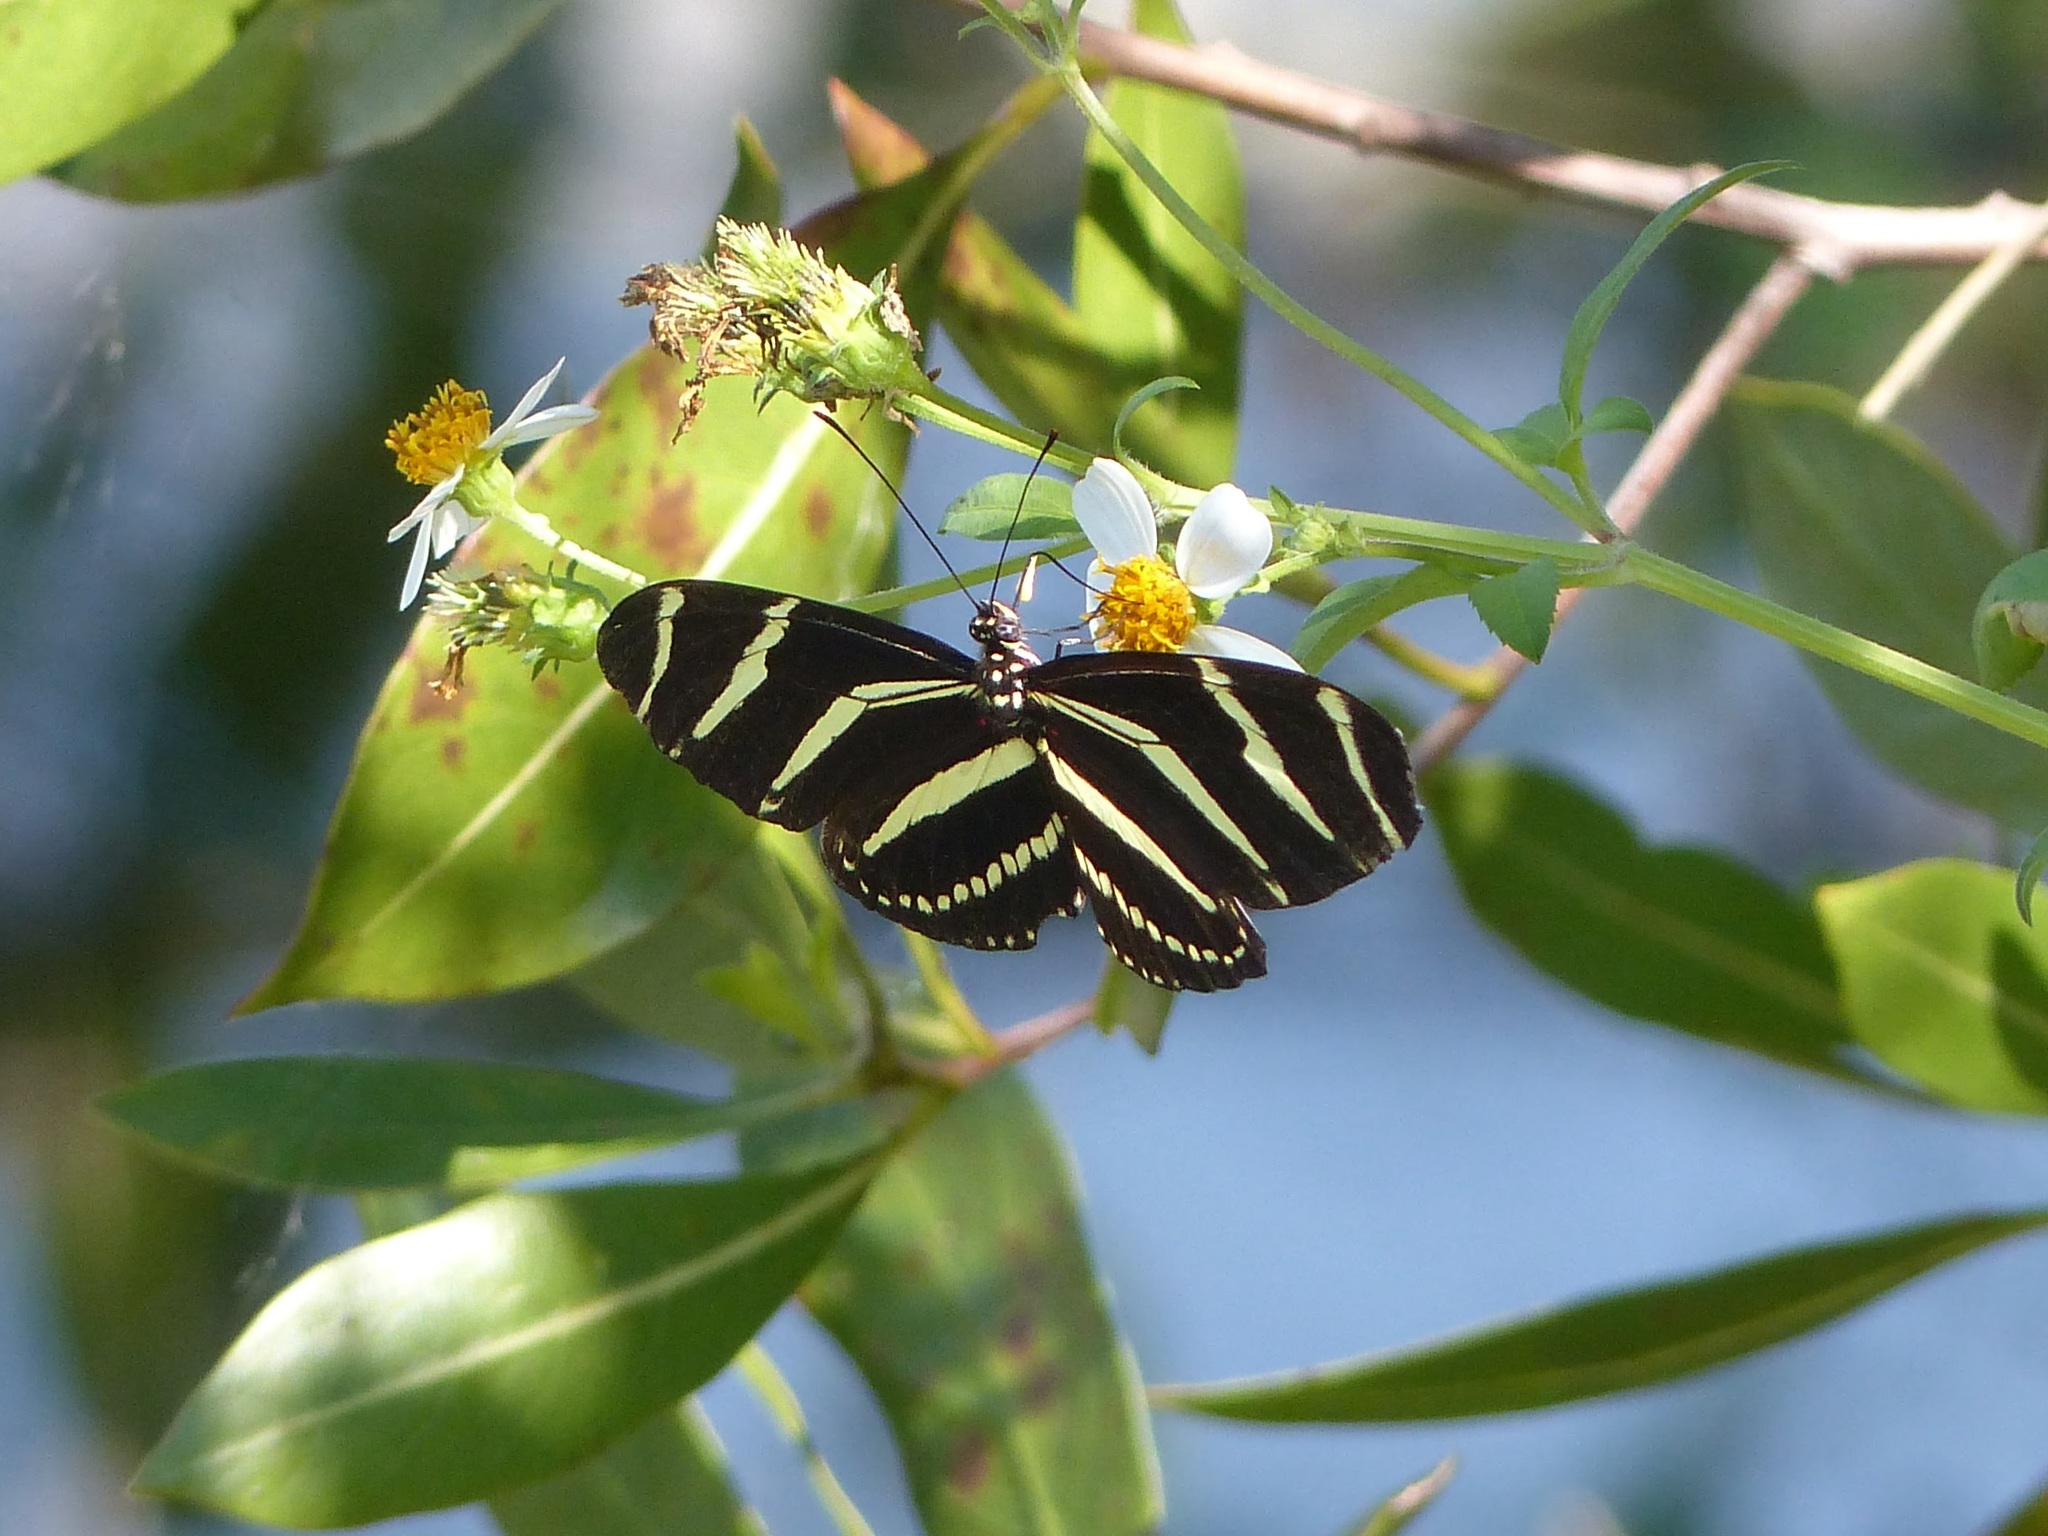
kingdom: Plantae
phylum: Tracheophyta
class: Magnoliopsida
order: Asterales
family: Asteraceae
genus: Bidens
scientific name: Bidens alba
